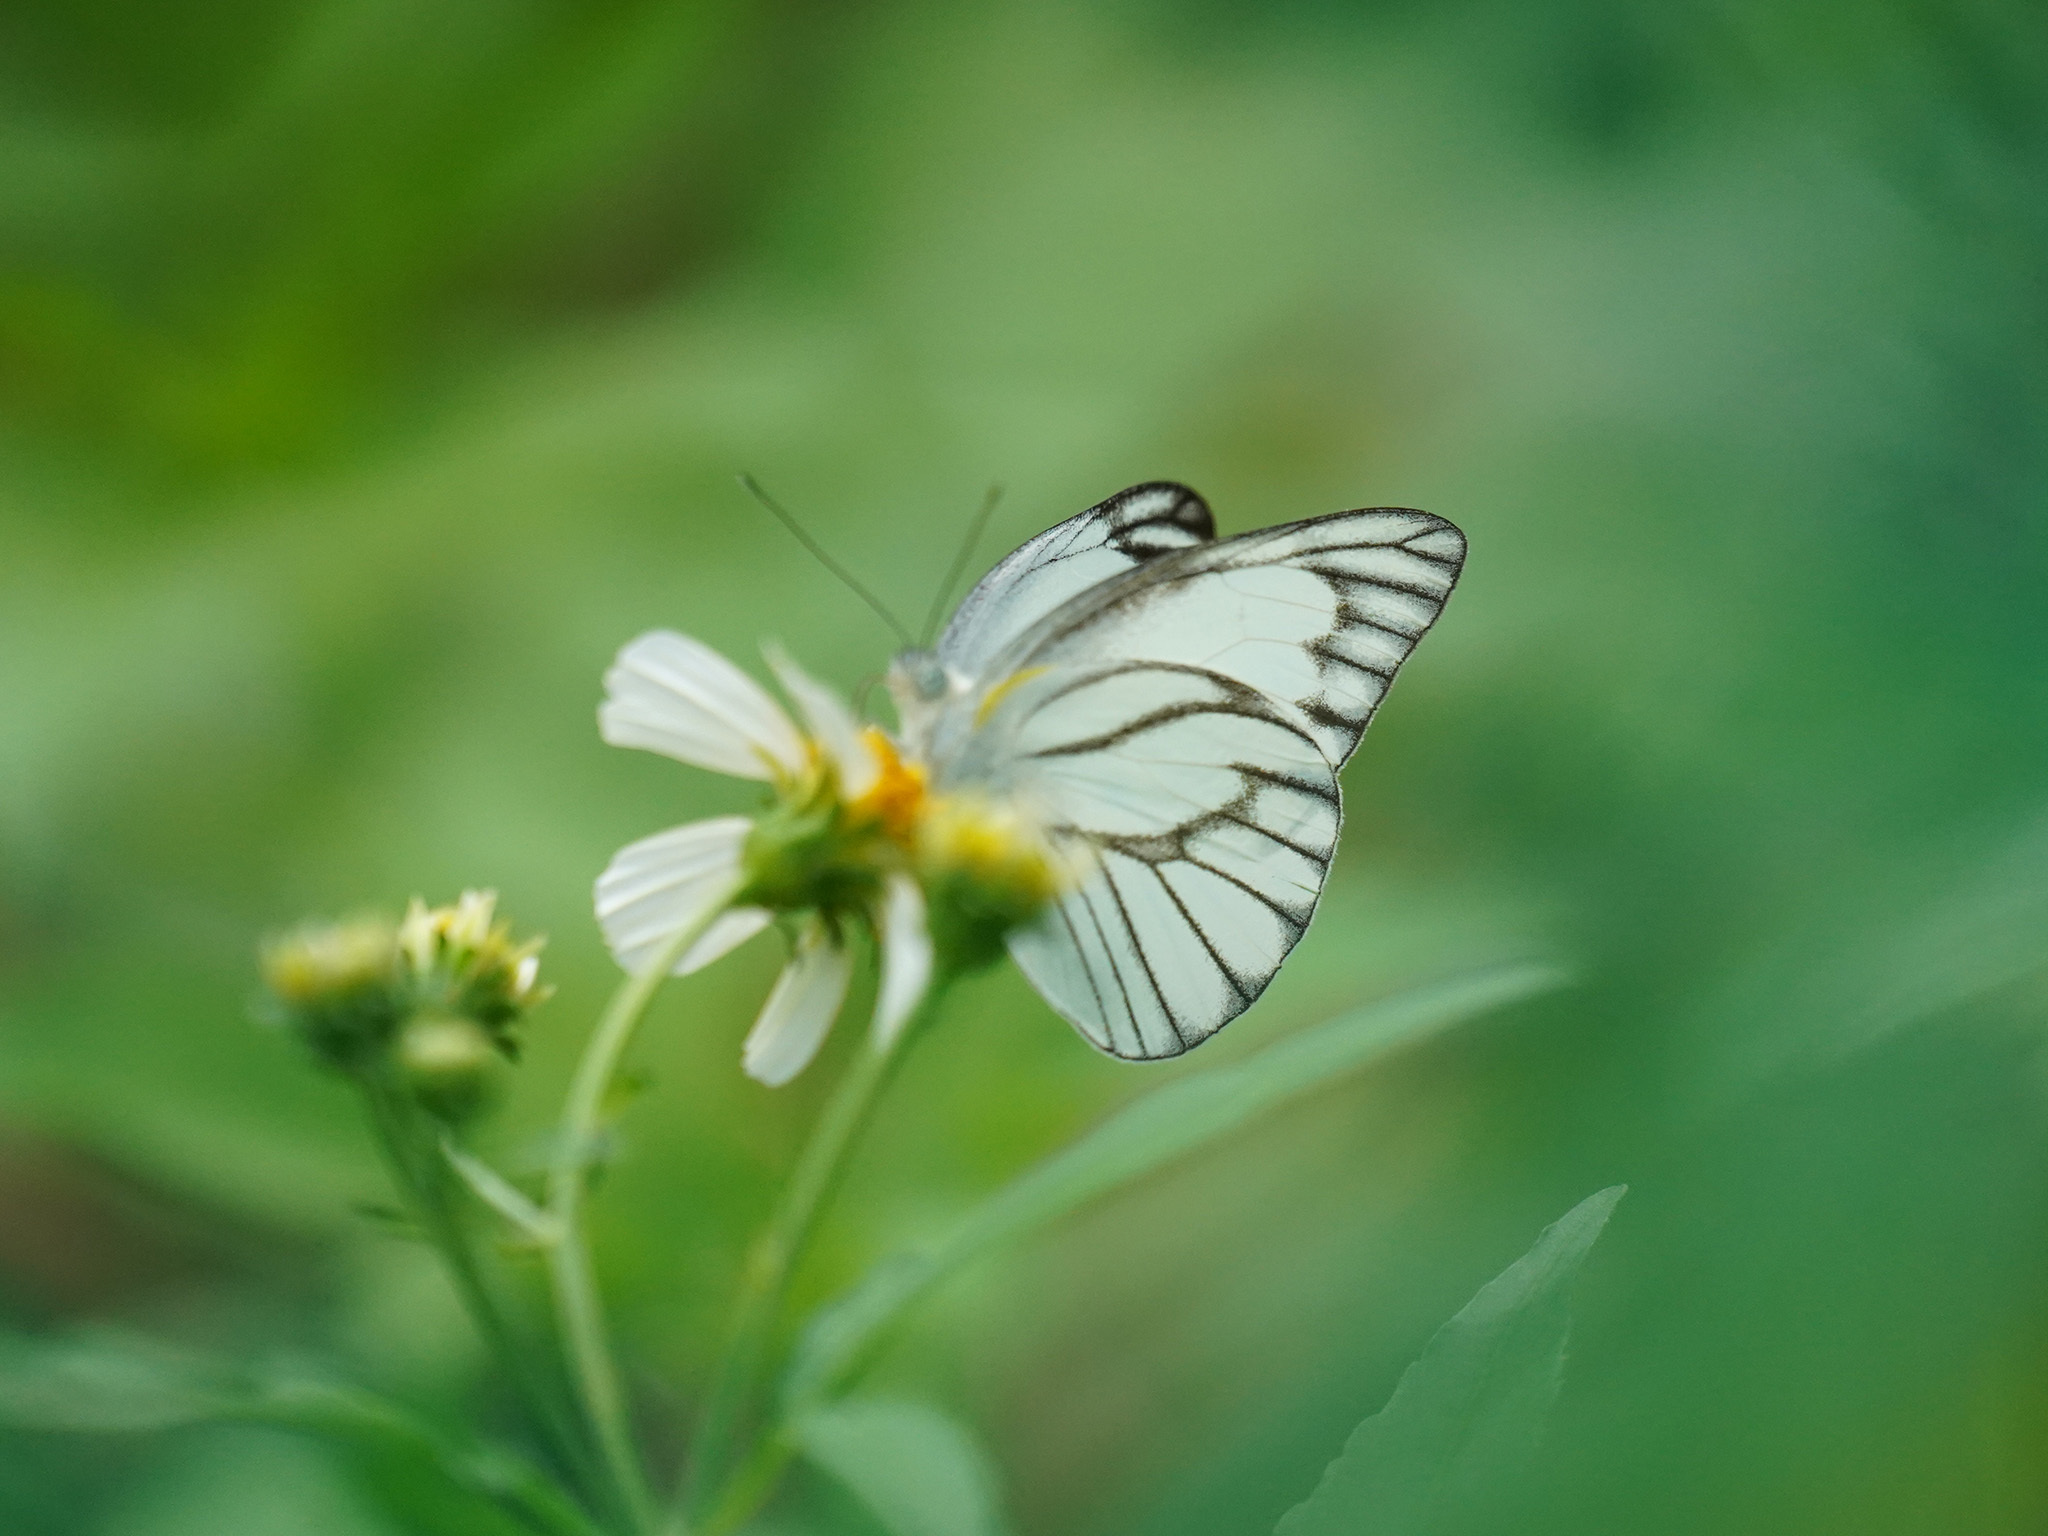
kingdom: Animalia
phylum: Arthropoda
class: Insecta
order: Lepidoptera
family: Pieridae
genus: Appias
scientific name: Appias libythea
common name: Striped albatross
